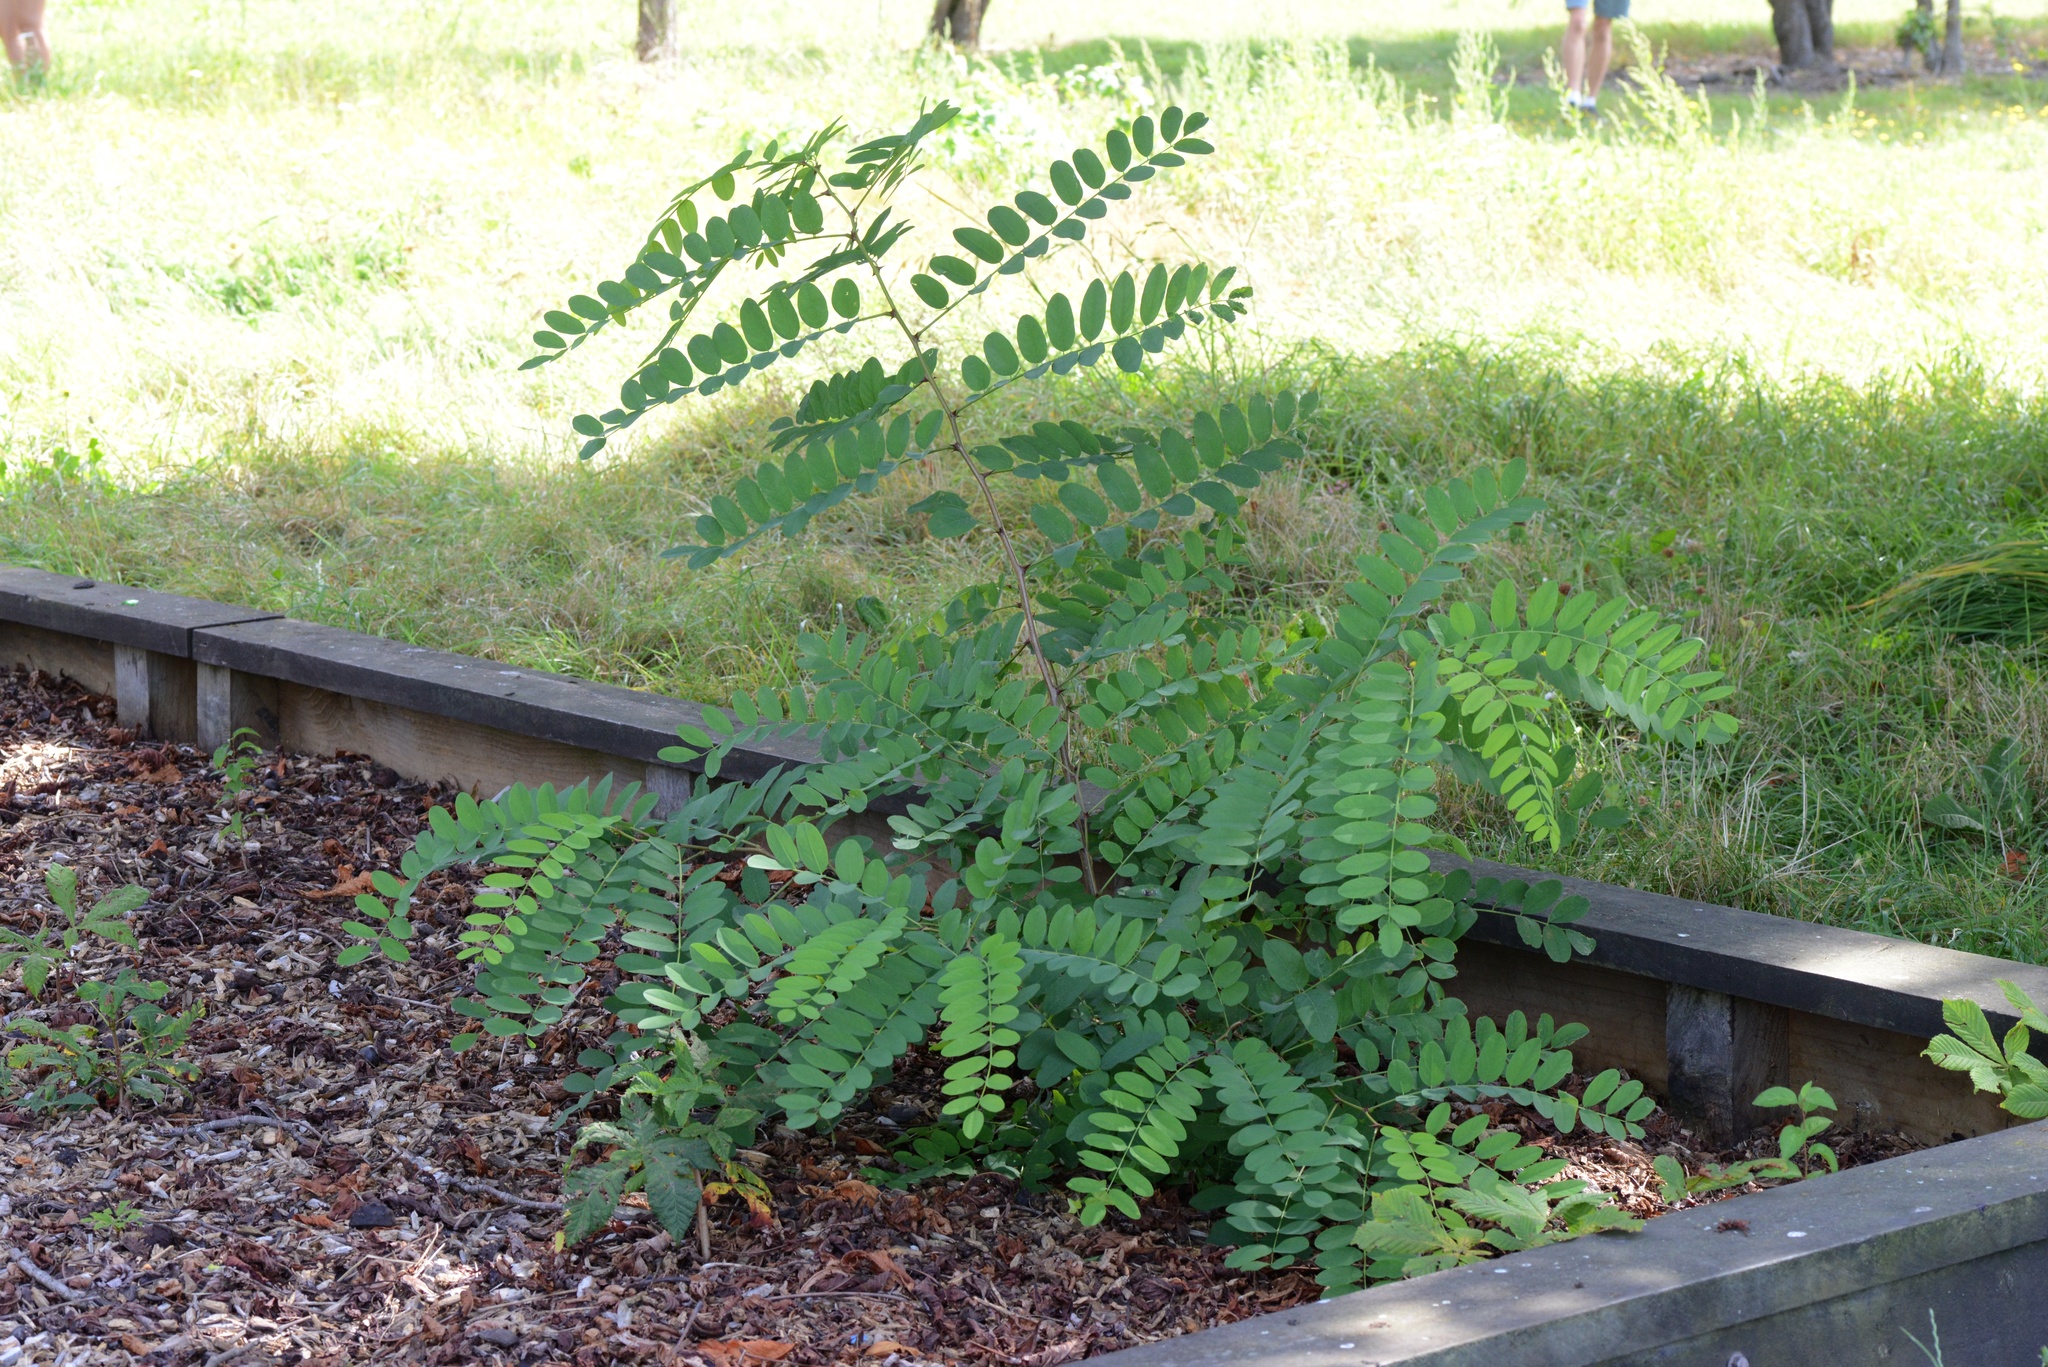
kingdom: Plantae
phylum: Tracheophyta
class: Magnoliopsida
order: Fabales
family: Fabaceae
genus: Robinia
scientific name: Robinia pseudoacacia
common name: Black locust
